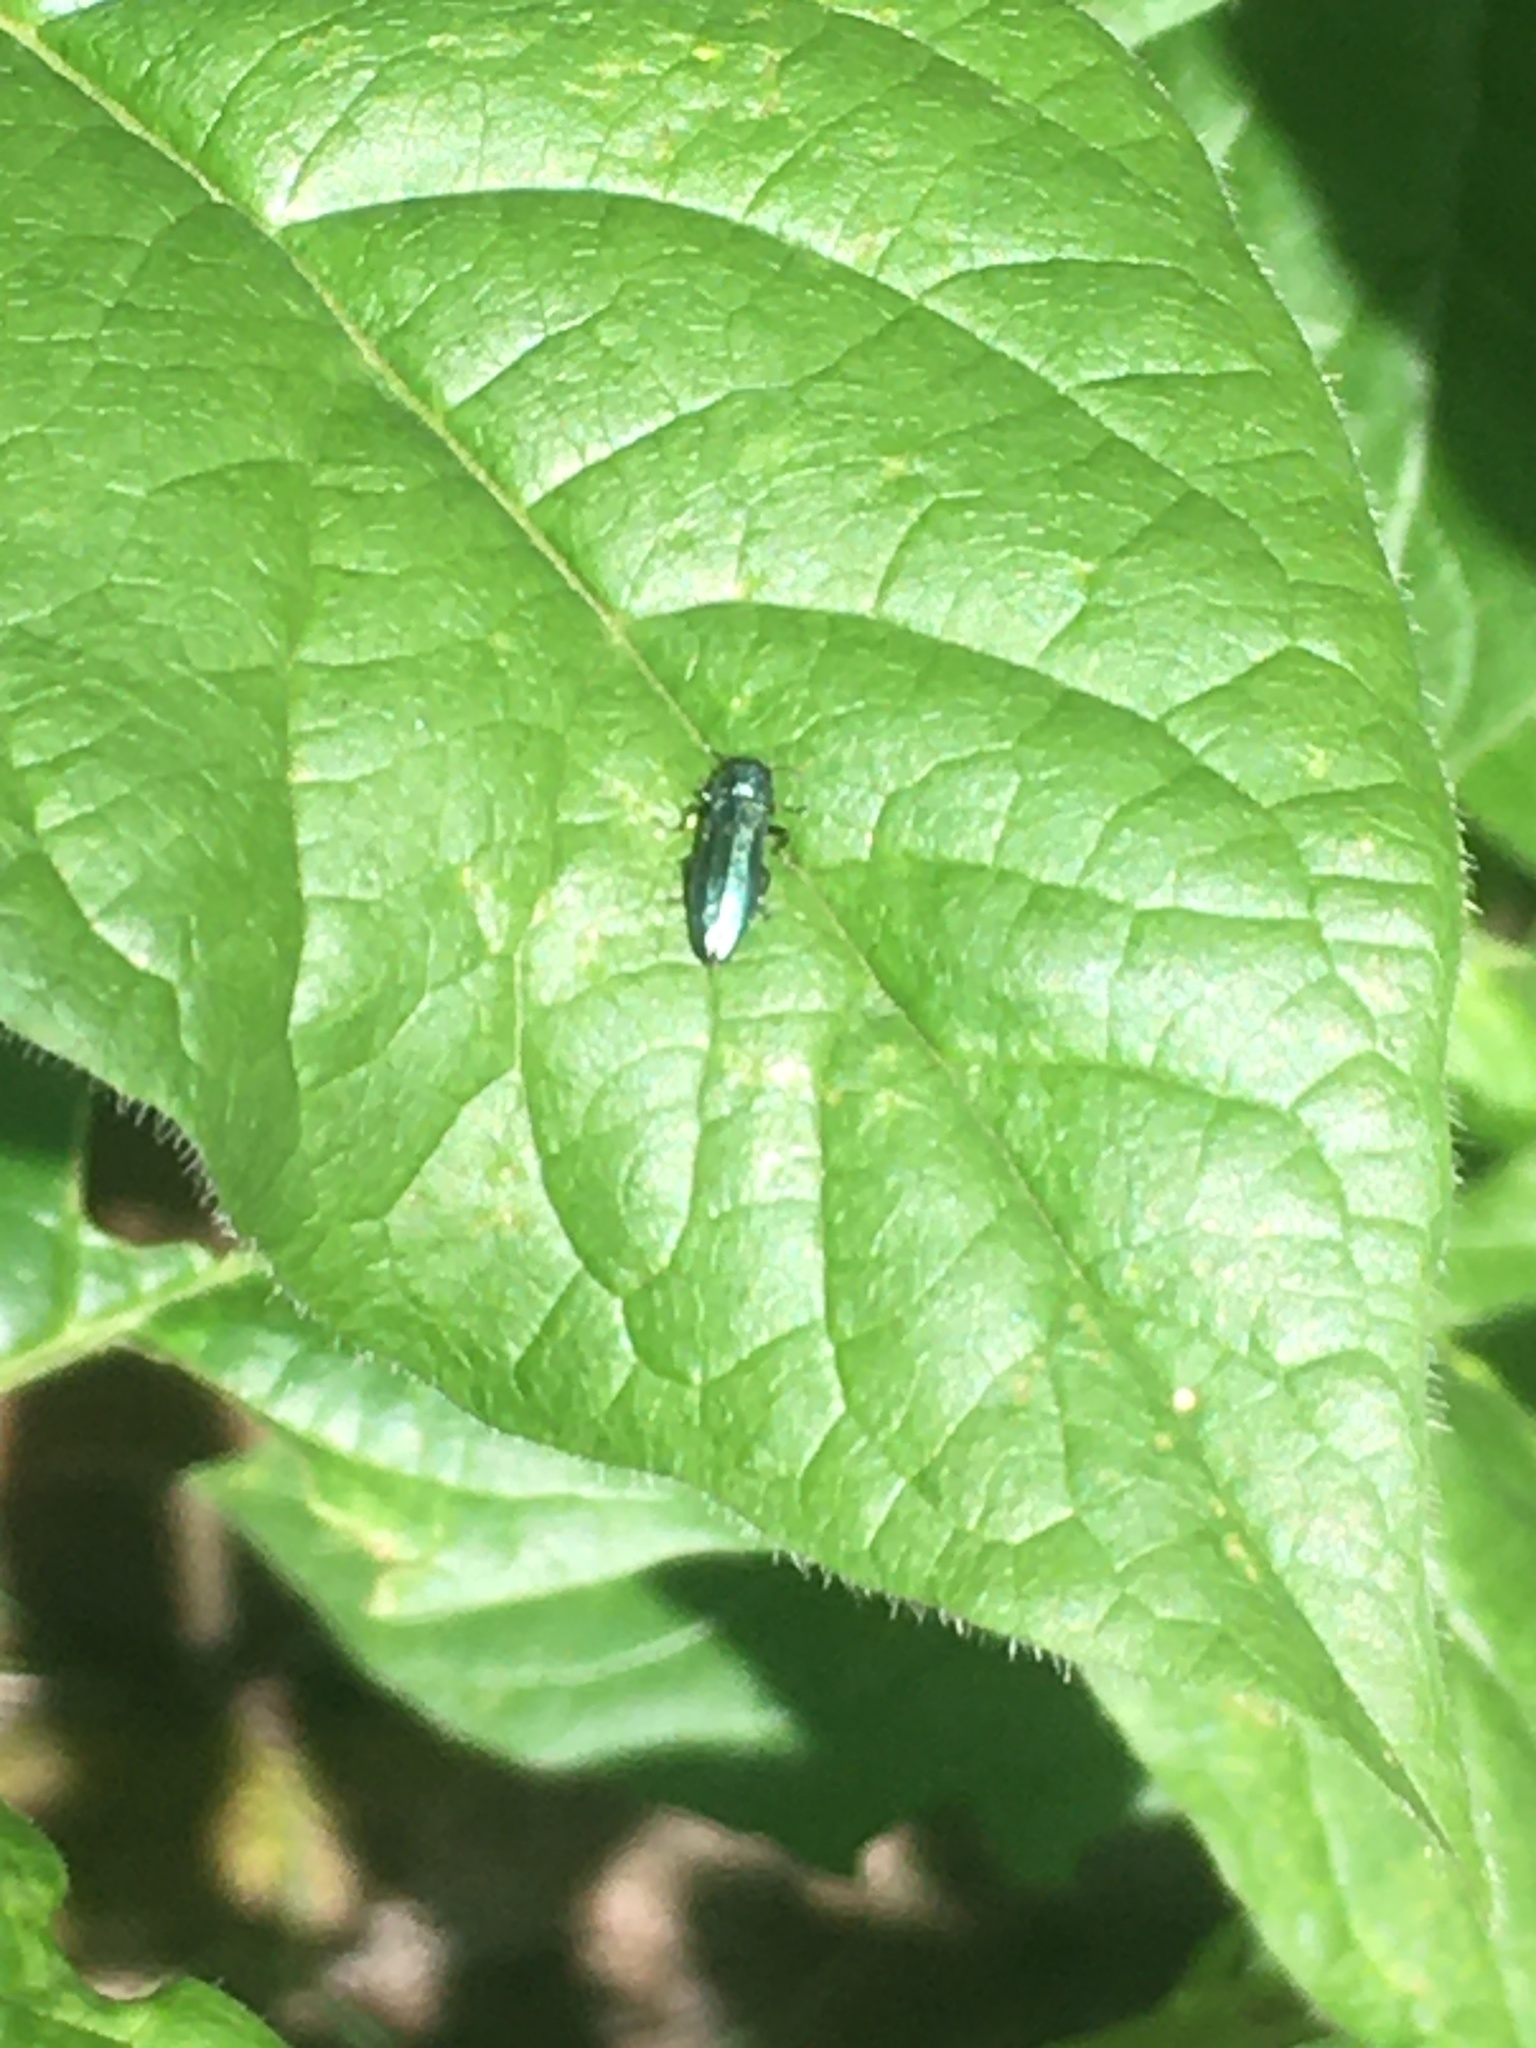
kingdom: Animalia
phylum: Arthropoda
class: Insecta
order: Coleoptera
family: Buprestidae
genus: Agrilus
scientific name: Agrilus cyanescens
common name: Bluish borer beetle
